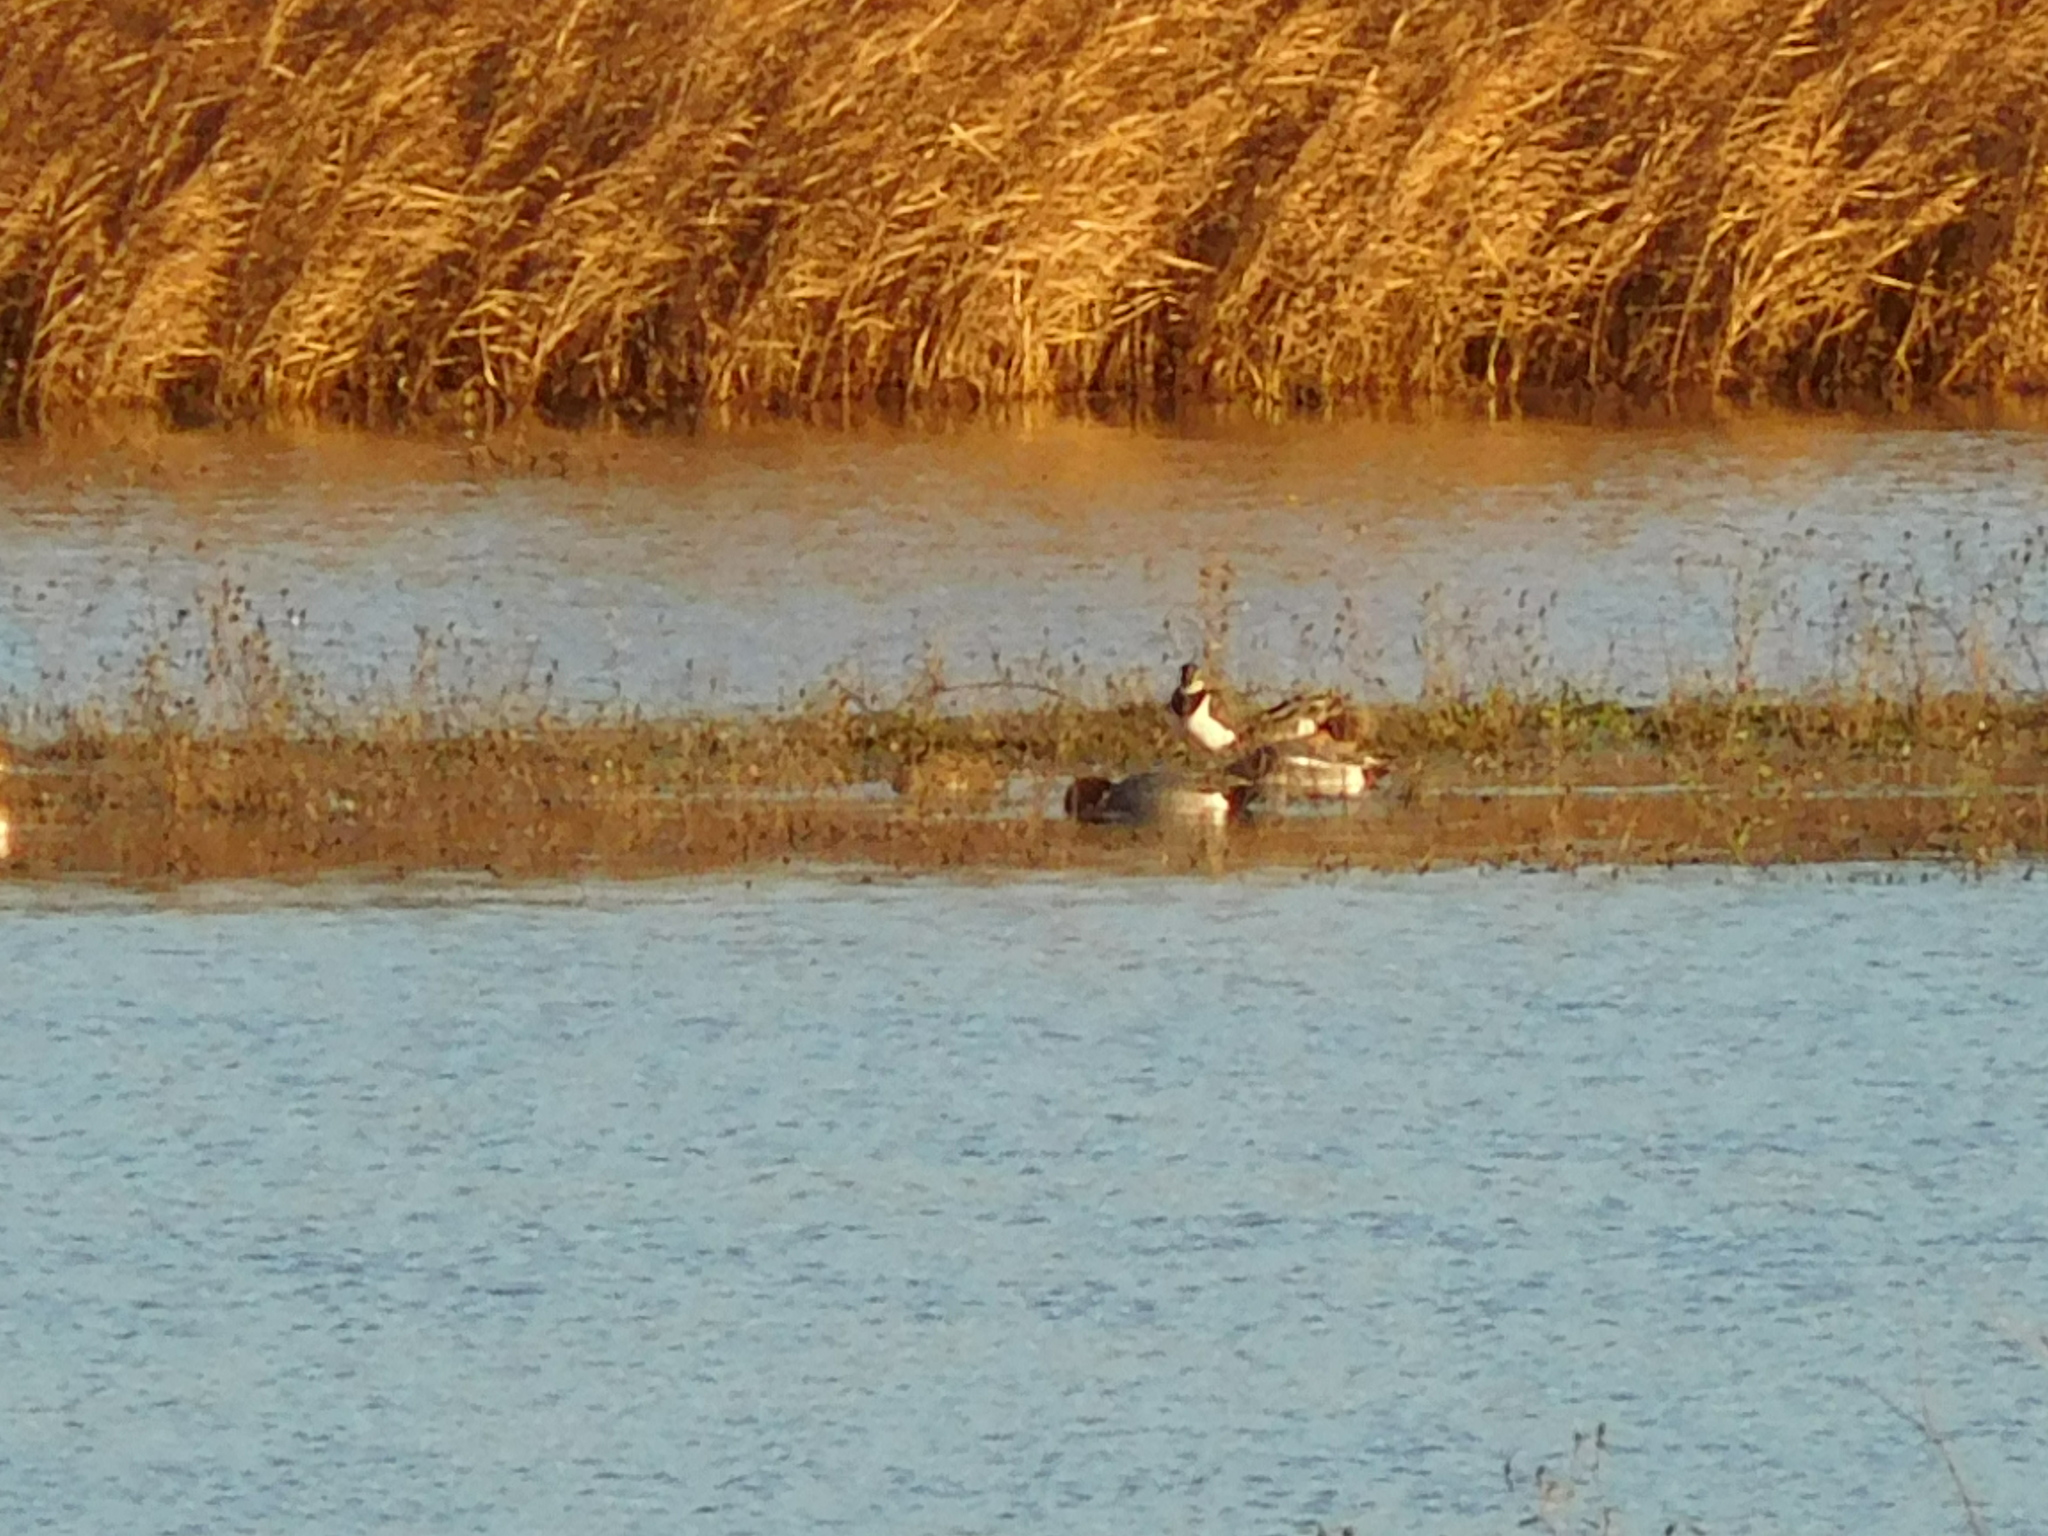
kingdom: Animalia
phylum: Chordata
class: Aves
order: Charadriiformes
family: Charadriidae
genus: Vanellus
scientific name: Vanellus vanellus
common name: Northern lapwing
